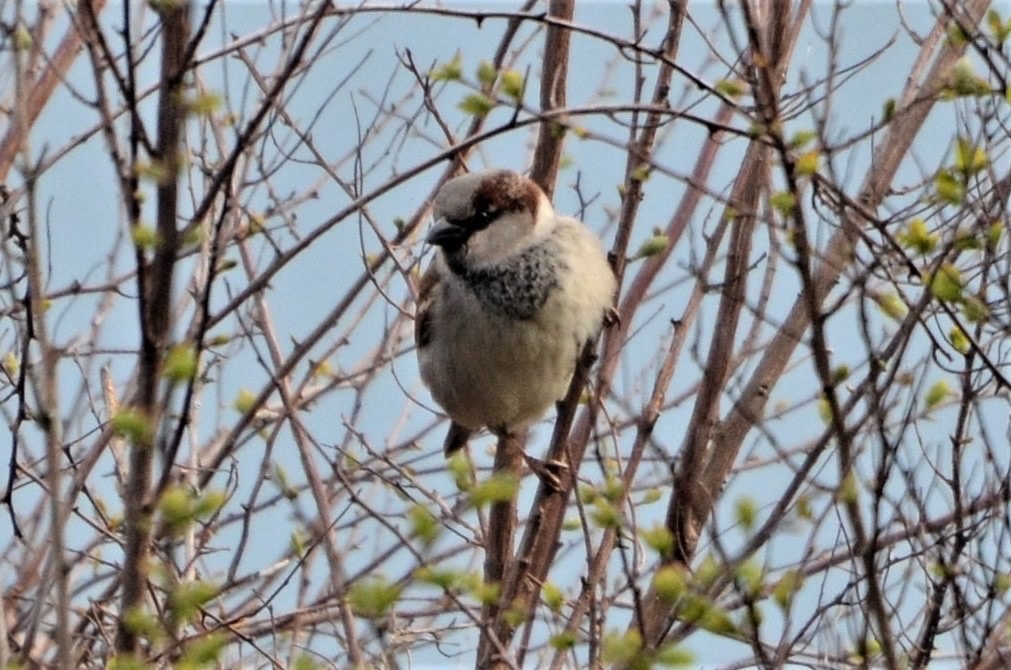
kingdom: Animalia
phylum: Chordata
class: Aves
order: Passeriformes
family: Passeridae
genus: Passer
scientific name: Passer domesticus
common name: House sparrow
